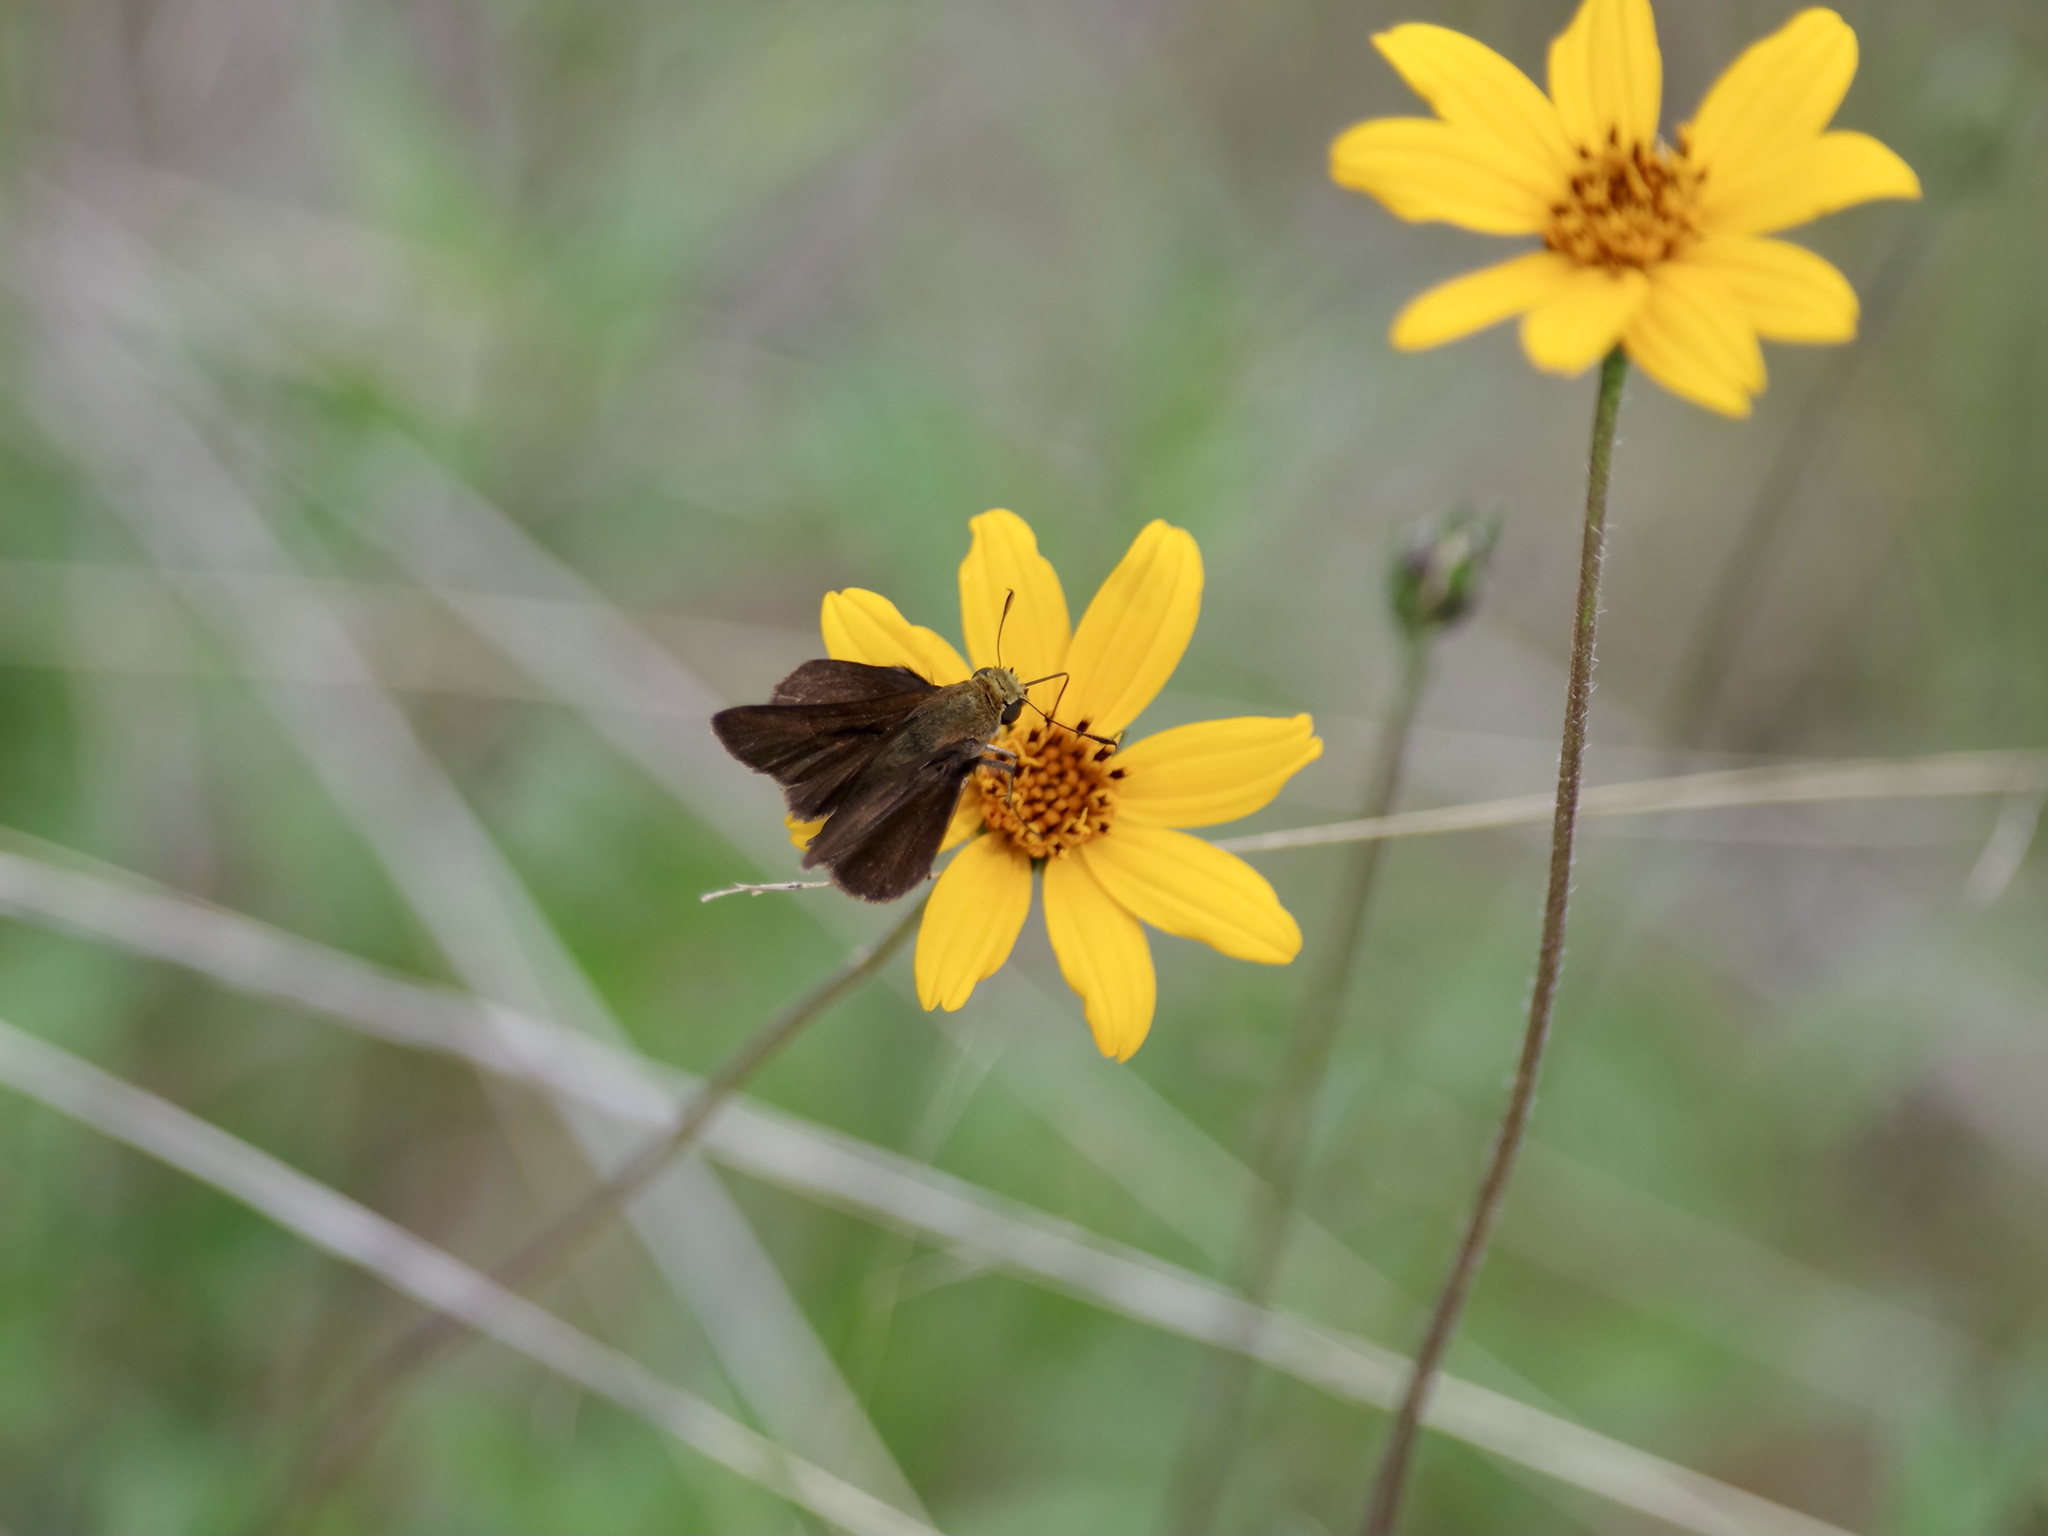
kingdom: Animalia
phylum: Arthropoda
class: Insecta
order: Lepidoptera
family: Hesperiidae
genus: Euphyes
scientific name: Euphyes vestris
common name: Dun skipper
